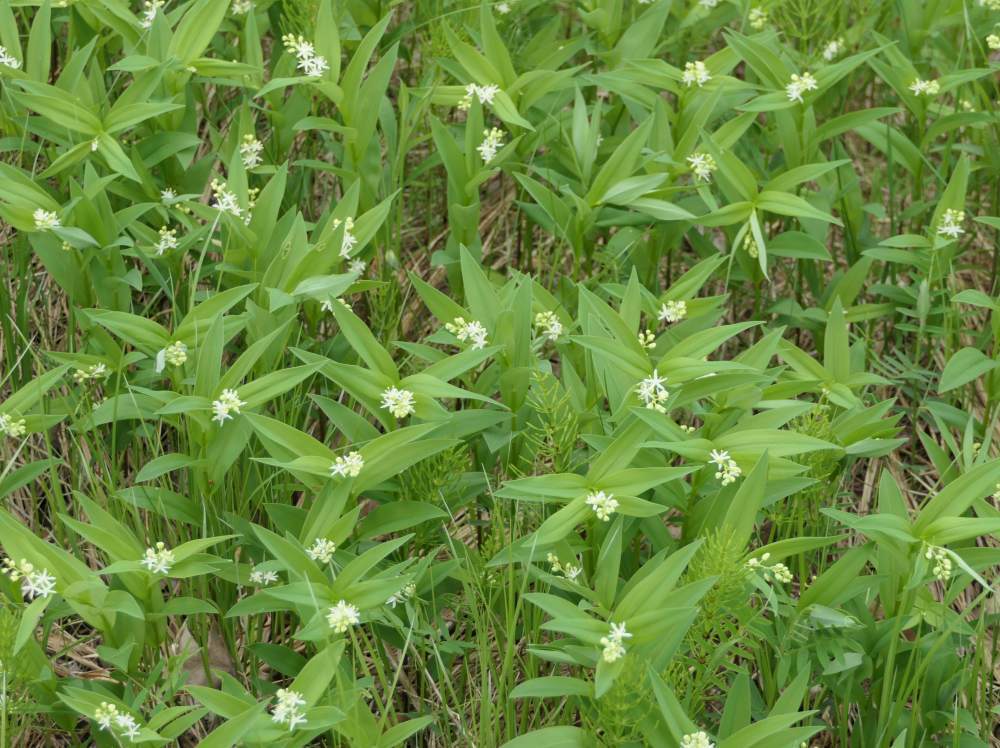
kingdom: Plantae
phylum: Tracheophyta
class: Liliopsida
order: Asparagales
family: Asparagaceae
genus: Maianthemum
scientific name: Maianthemum stellatum
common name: Little false solomon's seal
